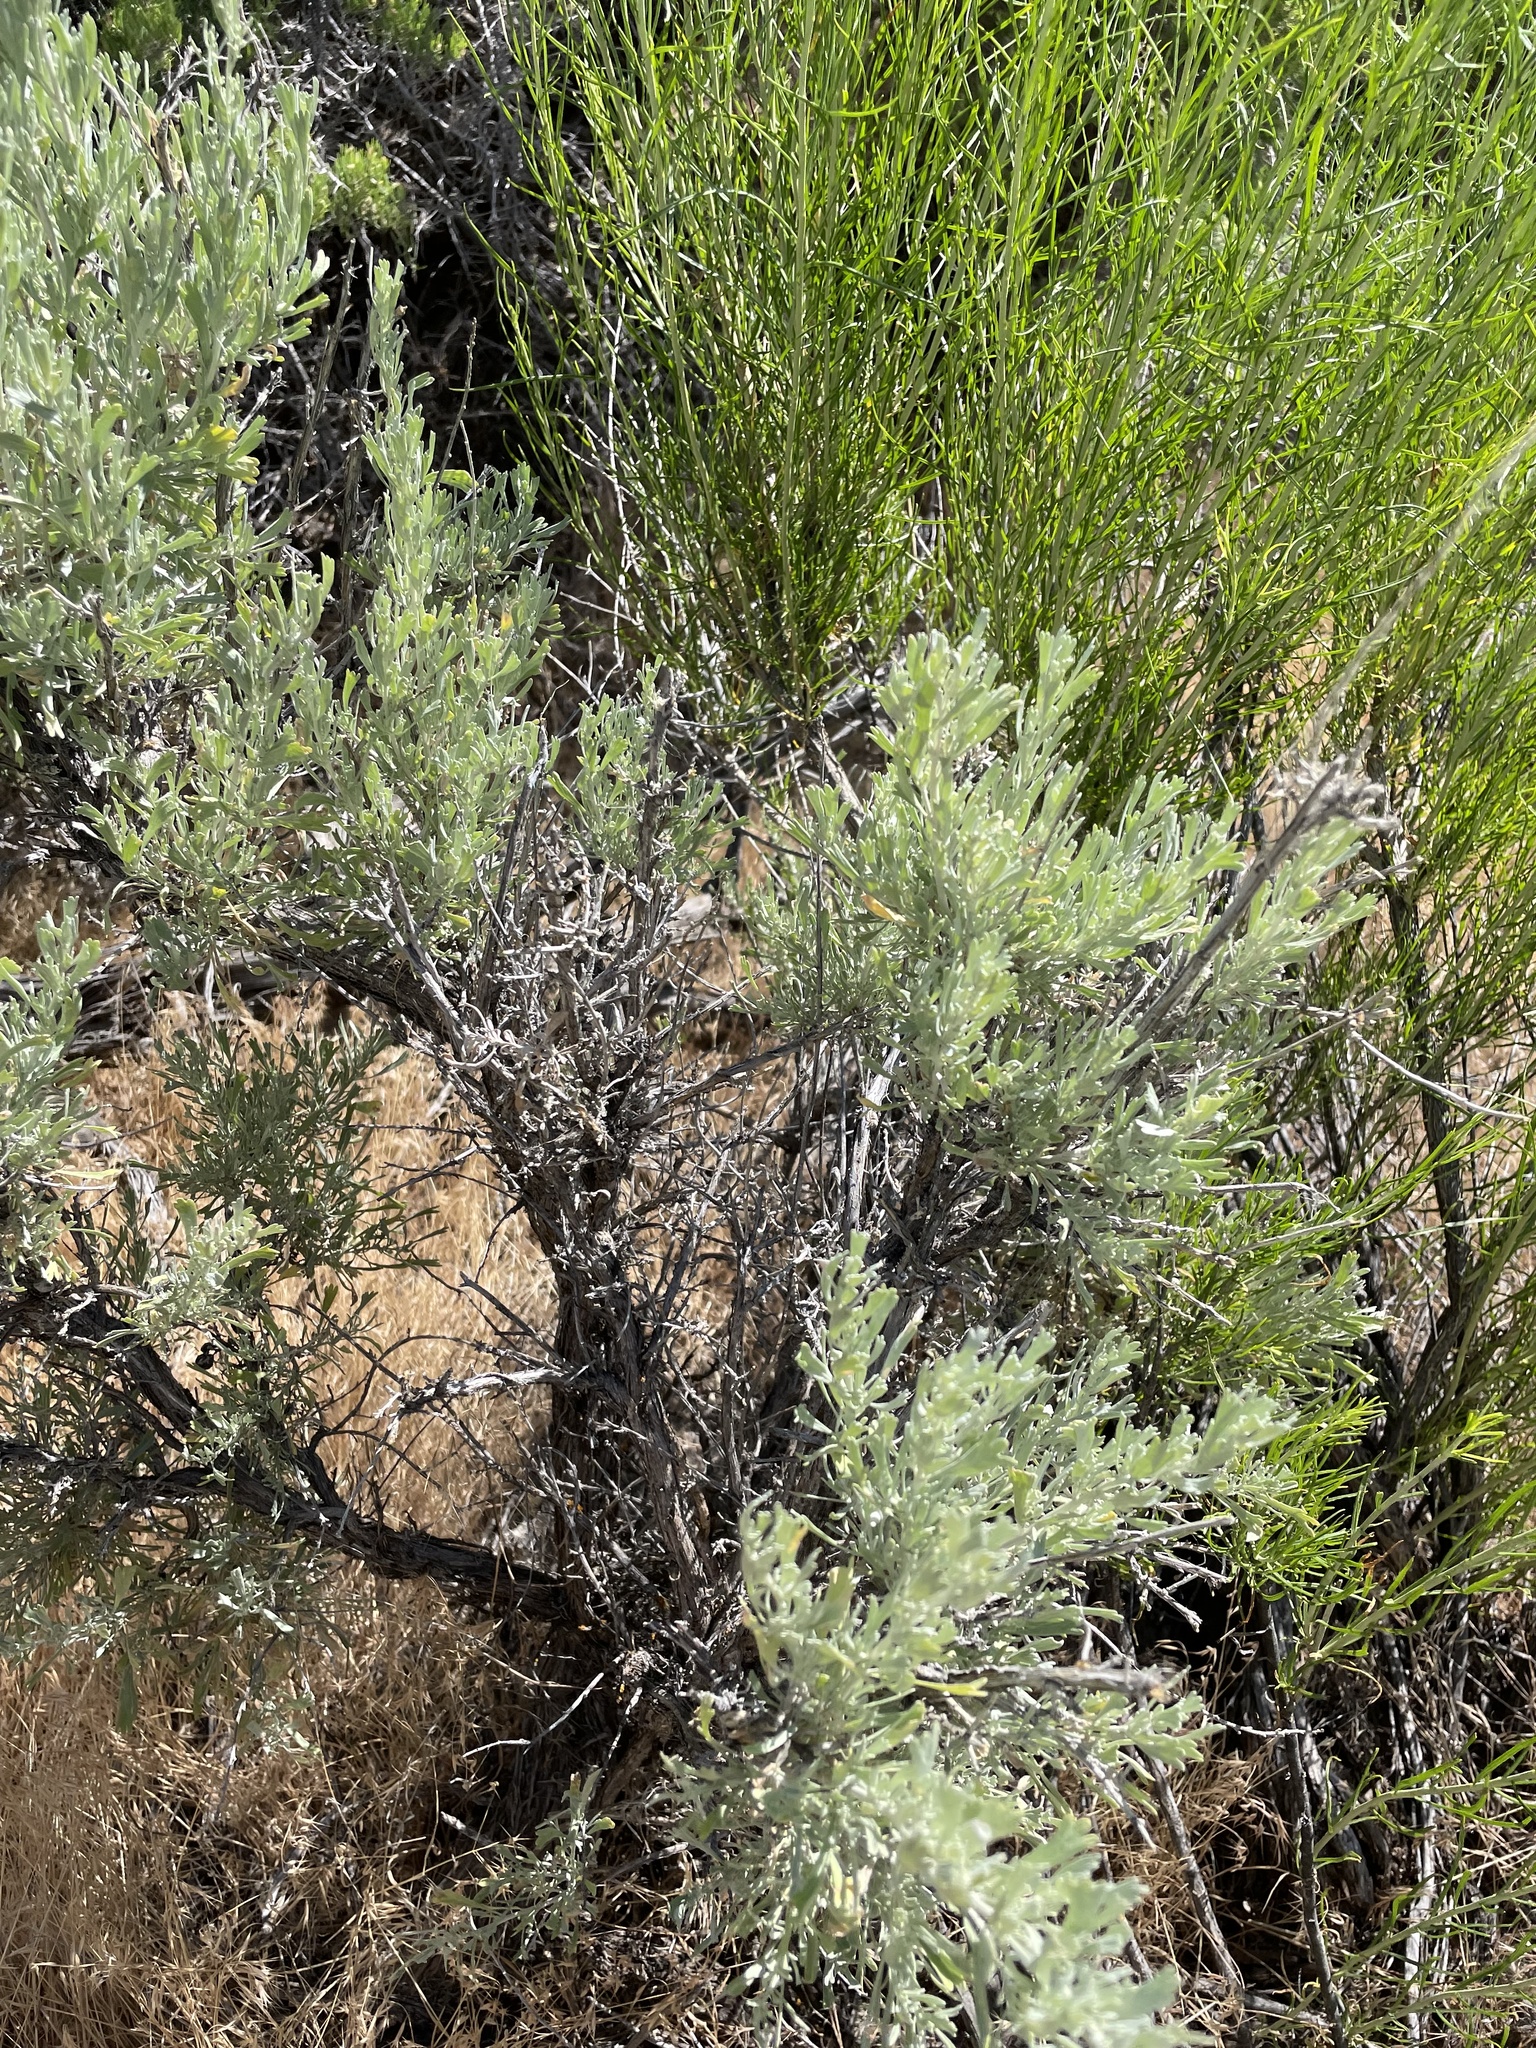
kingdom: Plantae
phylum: Tracheophyta
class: Magnoliopsida
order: Asterales
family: Asteraceae
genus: Artemisia
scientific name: Artemisia tridentata
